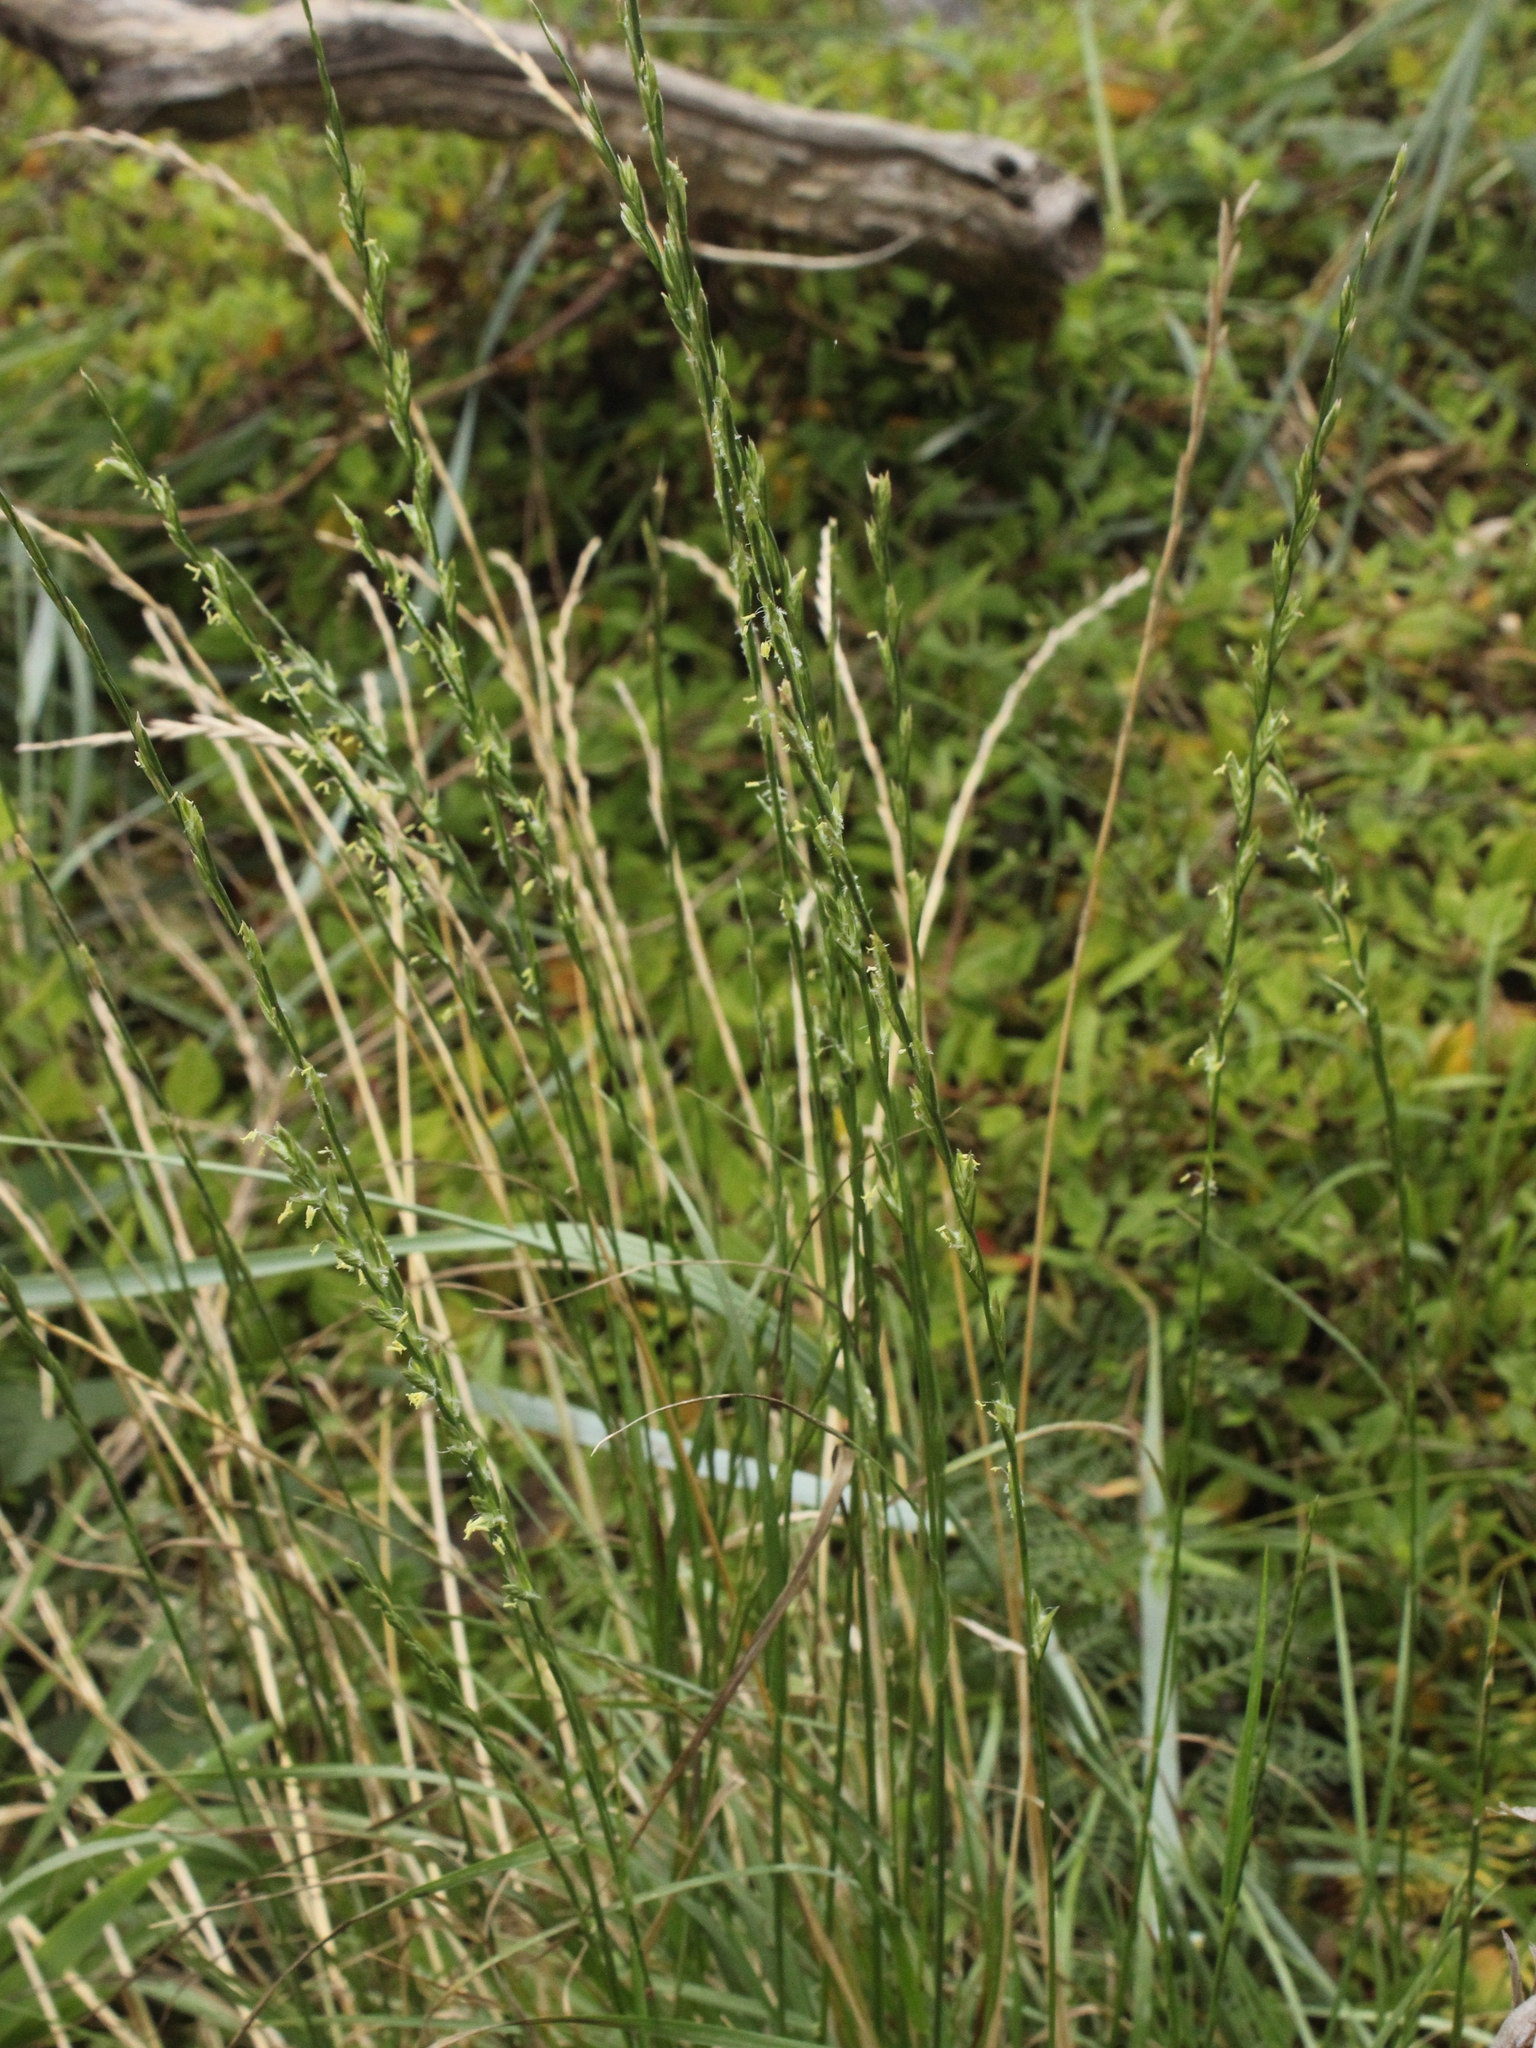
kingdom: Plantae
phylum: Tracheophyta
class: Liliopsida
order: Poales
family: Poaceae
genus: Lolium
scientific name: Lolium perenne
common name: Perennial ryegrass
